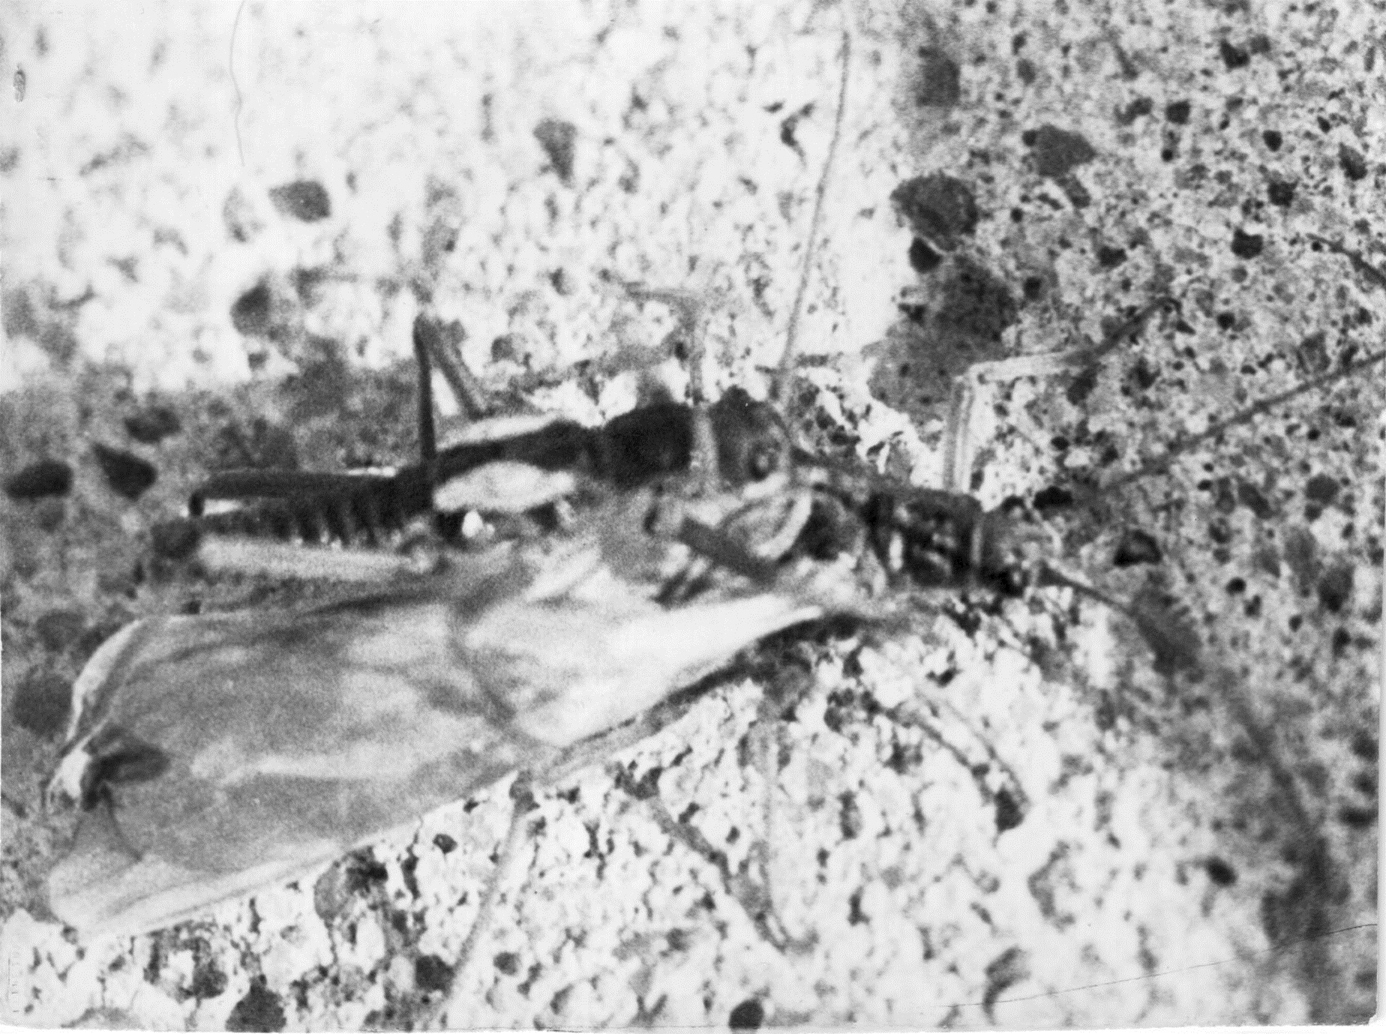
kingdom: Animalia
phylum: Arthropoda
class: Insecta
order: Plecoptera
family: Taeniopterygidae
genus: Taeniopteryx
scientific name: Taeniopteryx araneoides
